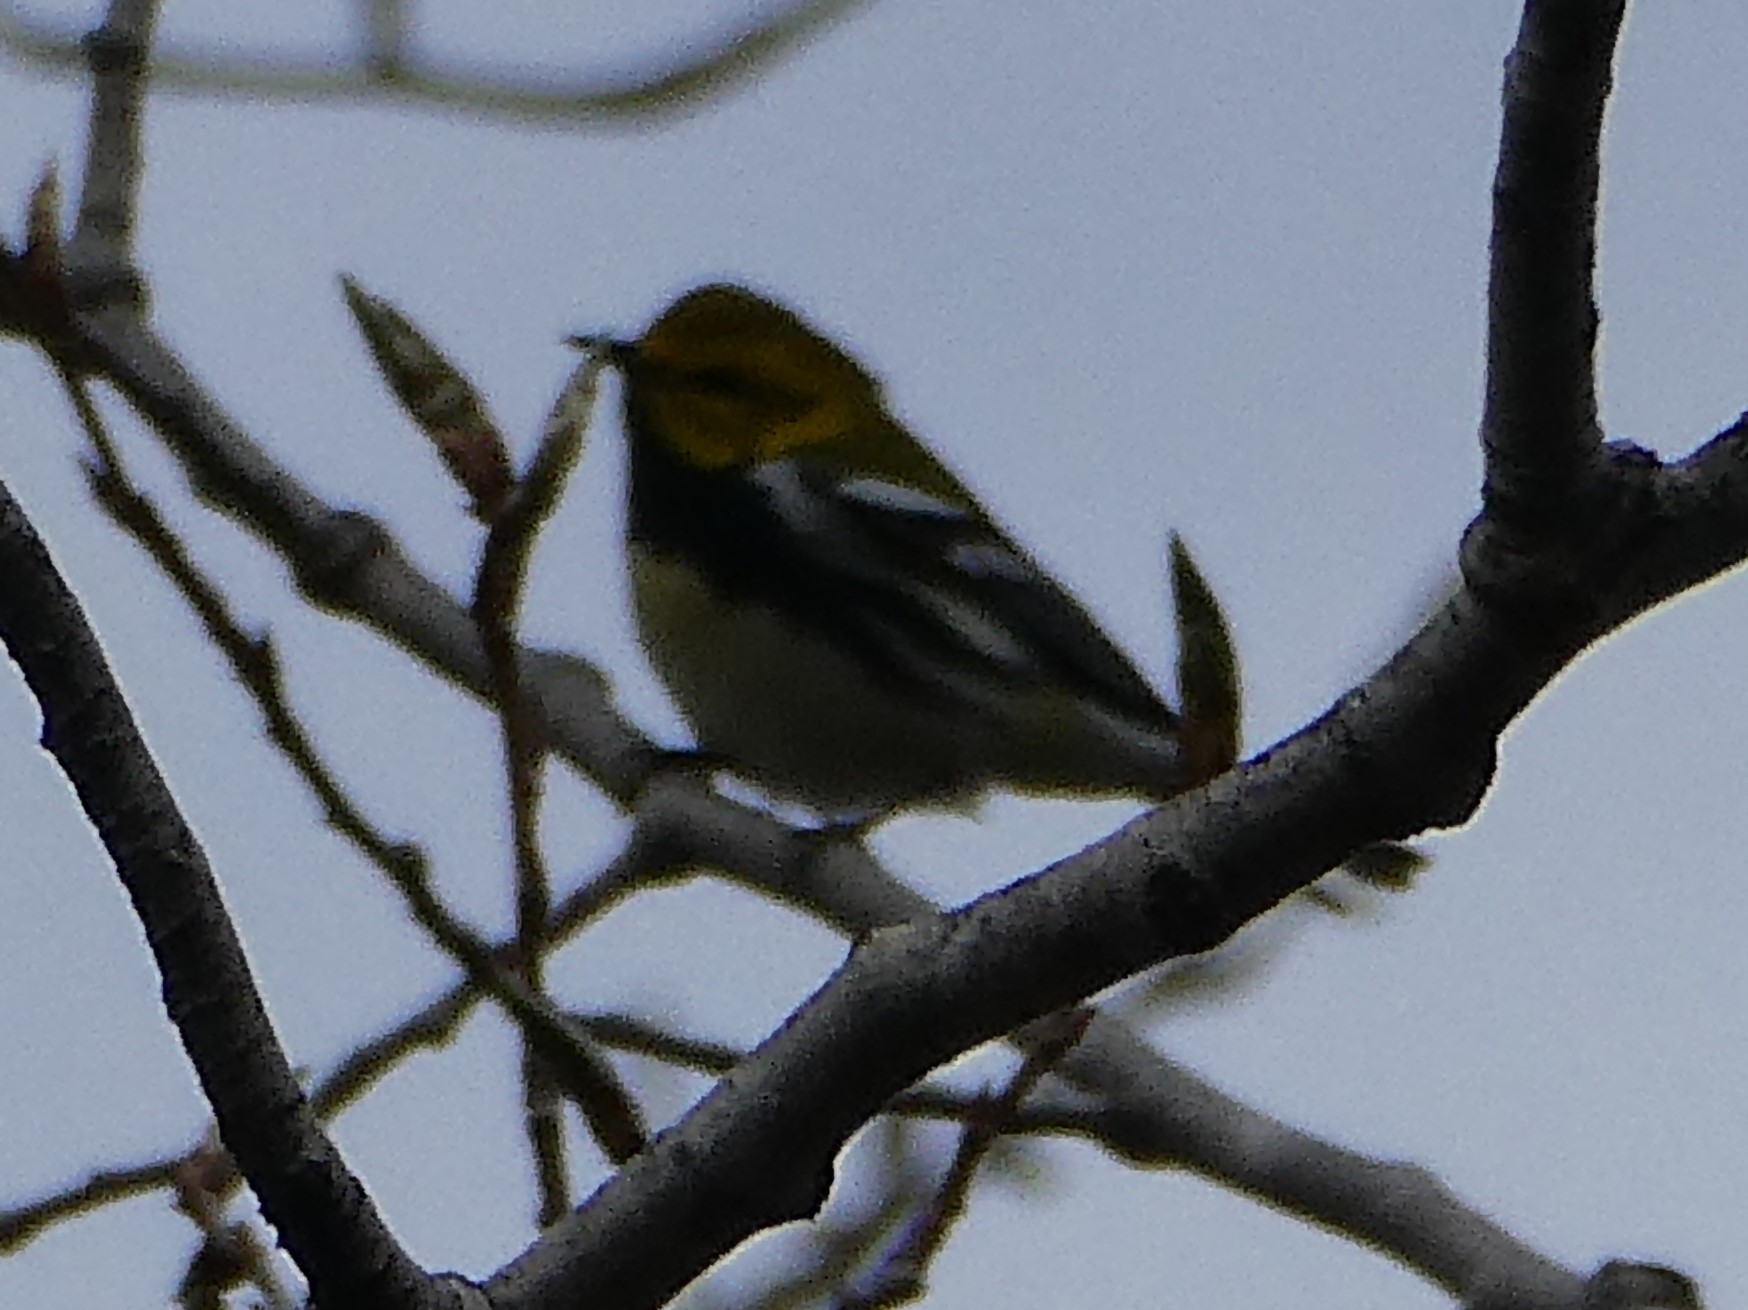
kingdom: Animalia
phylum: Chordata
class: Aves
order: Passeriformes
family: Parulidae
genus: Setophaga
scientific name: Setophaga virens
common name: Black-throated green warbler
